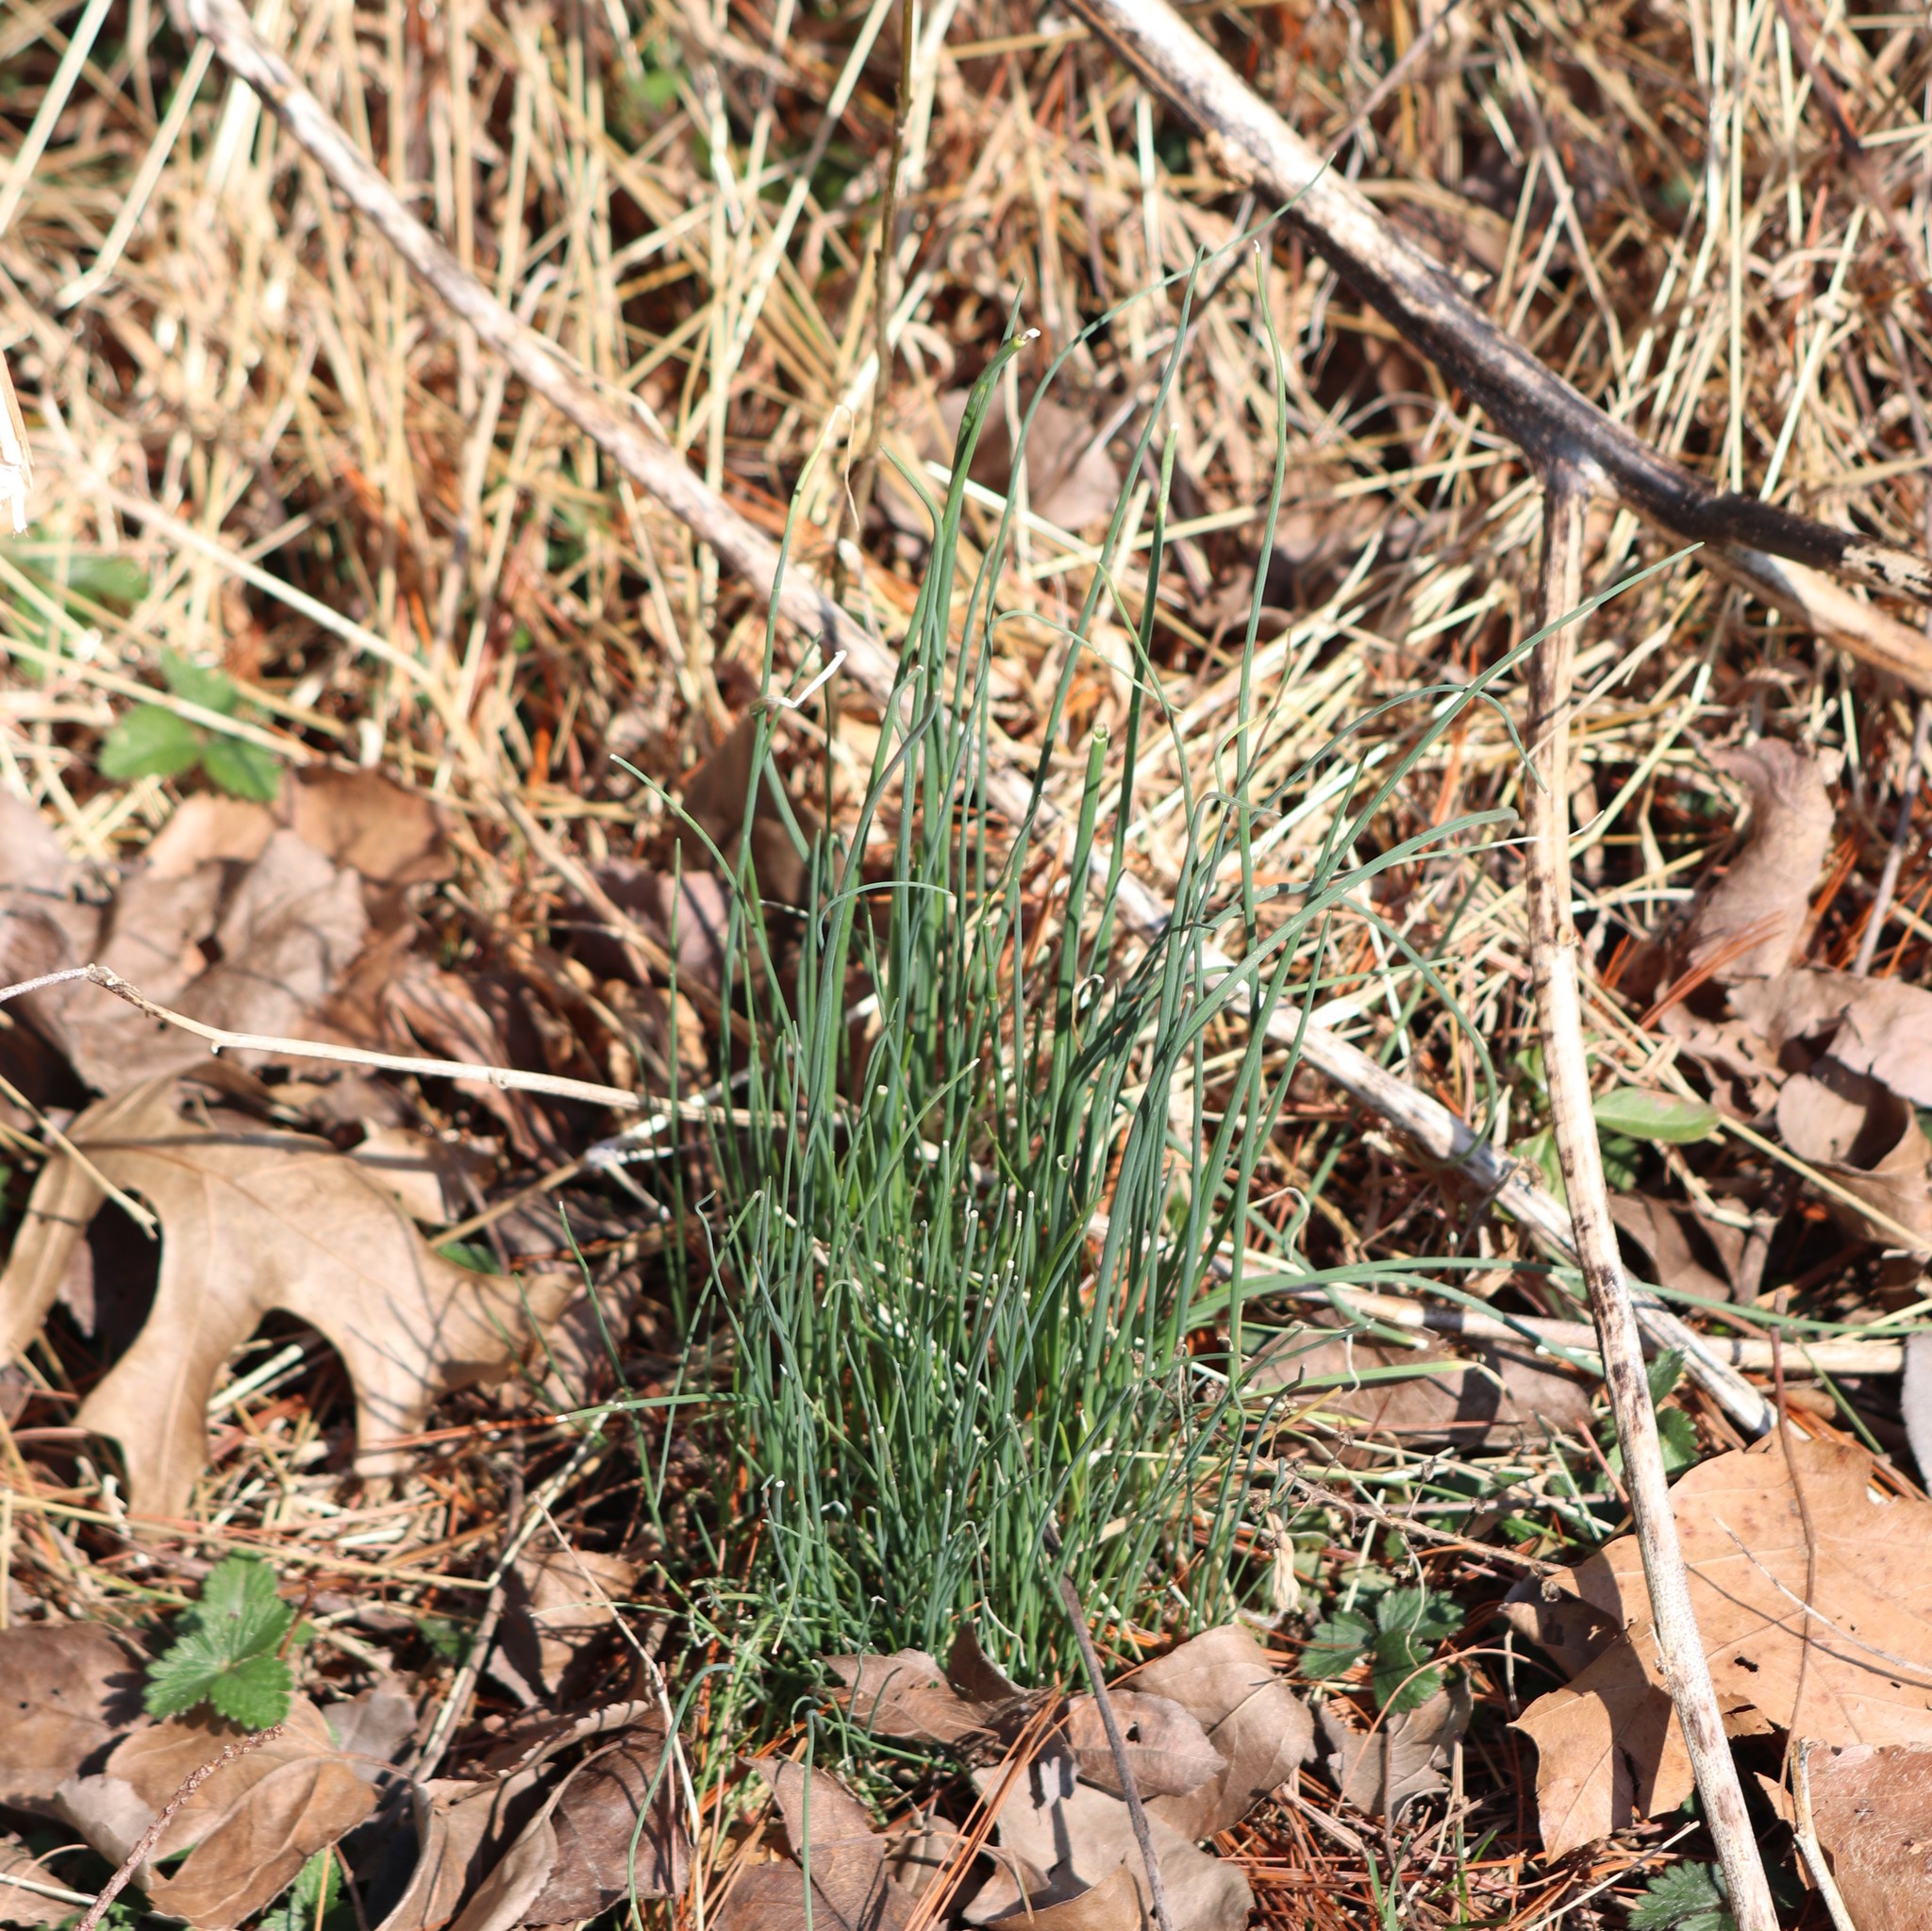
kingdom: Plantae
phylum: Tracheophyta
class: Liliopsida
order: Asparagales
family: Amaryllidaceae
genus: Allium
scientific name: Allium vineale
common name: Crow garlic
